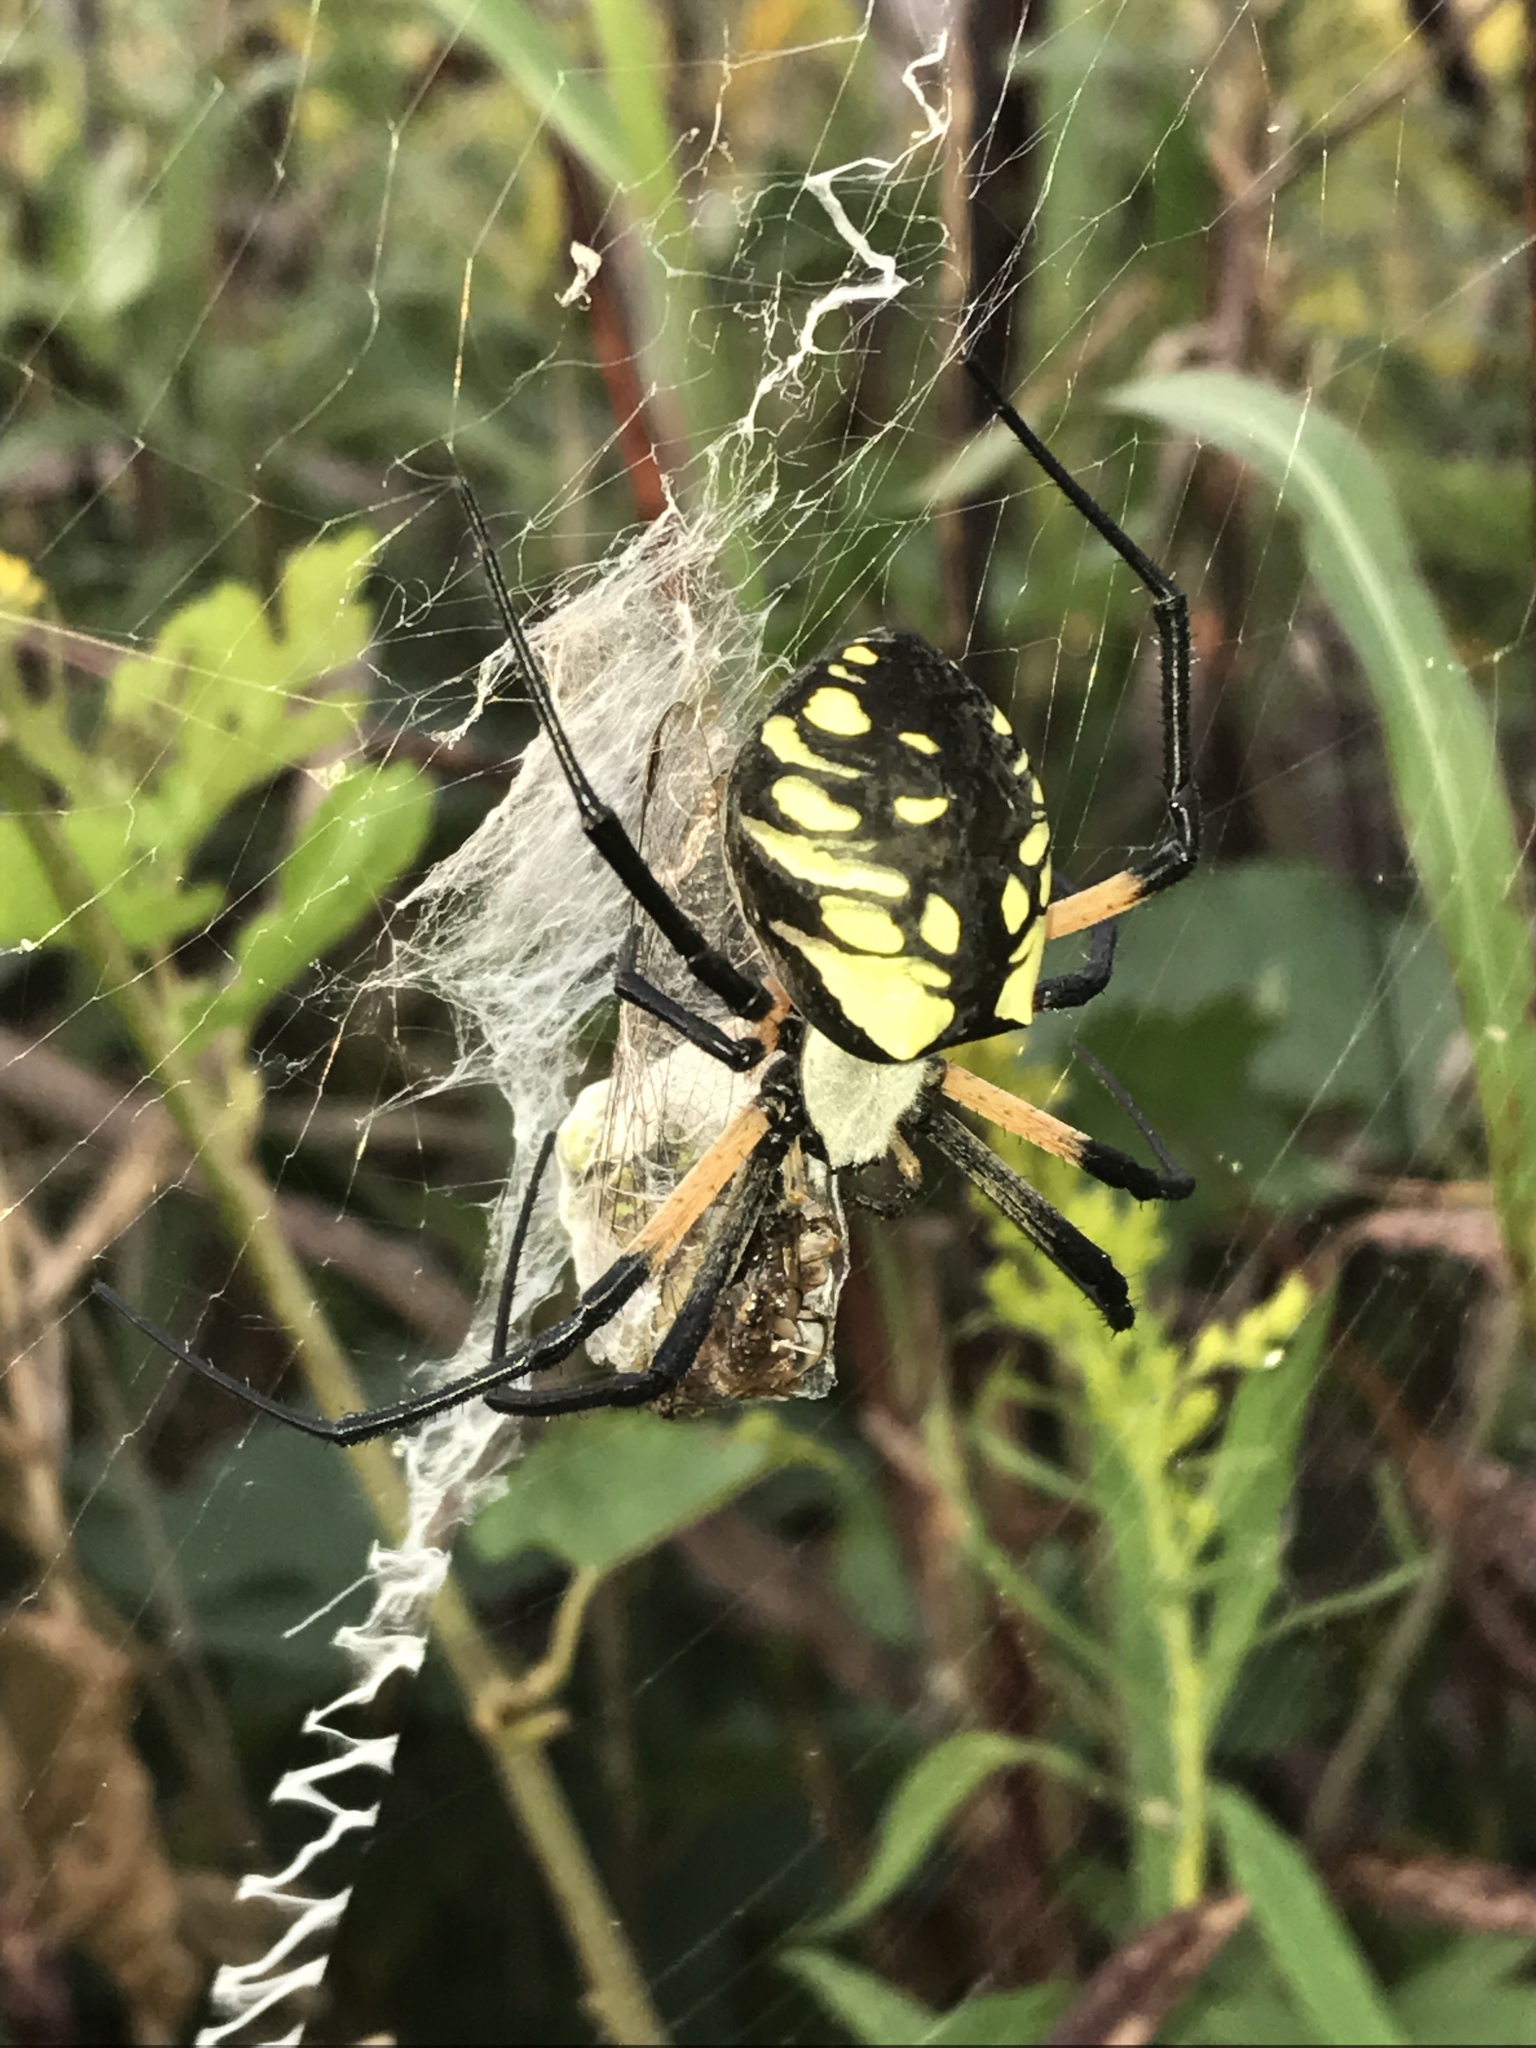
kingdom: Animalia
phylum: Arthropoda
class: Arachnida
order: Araneae
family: Araneidae
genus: Argiope
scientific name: Argiope aurantia
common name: Orb weavers
